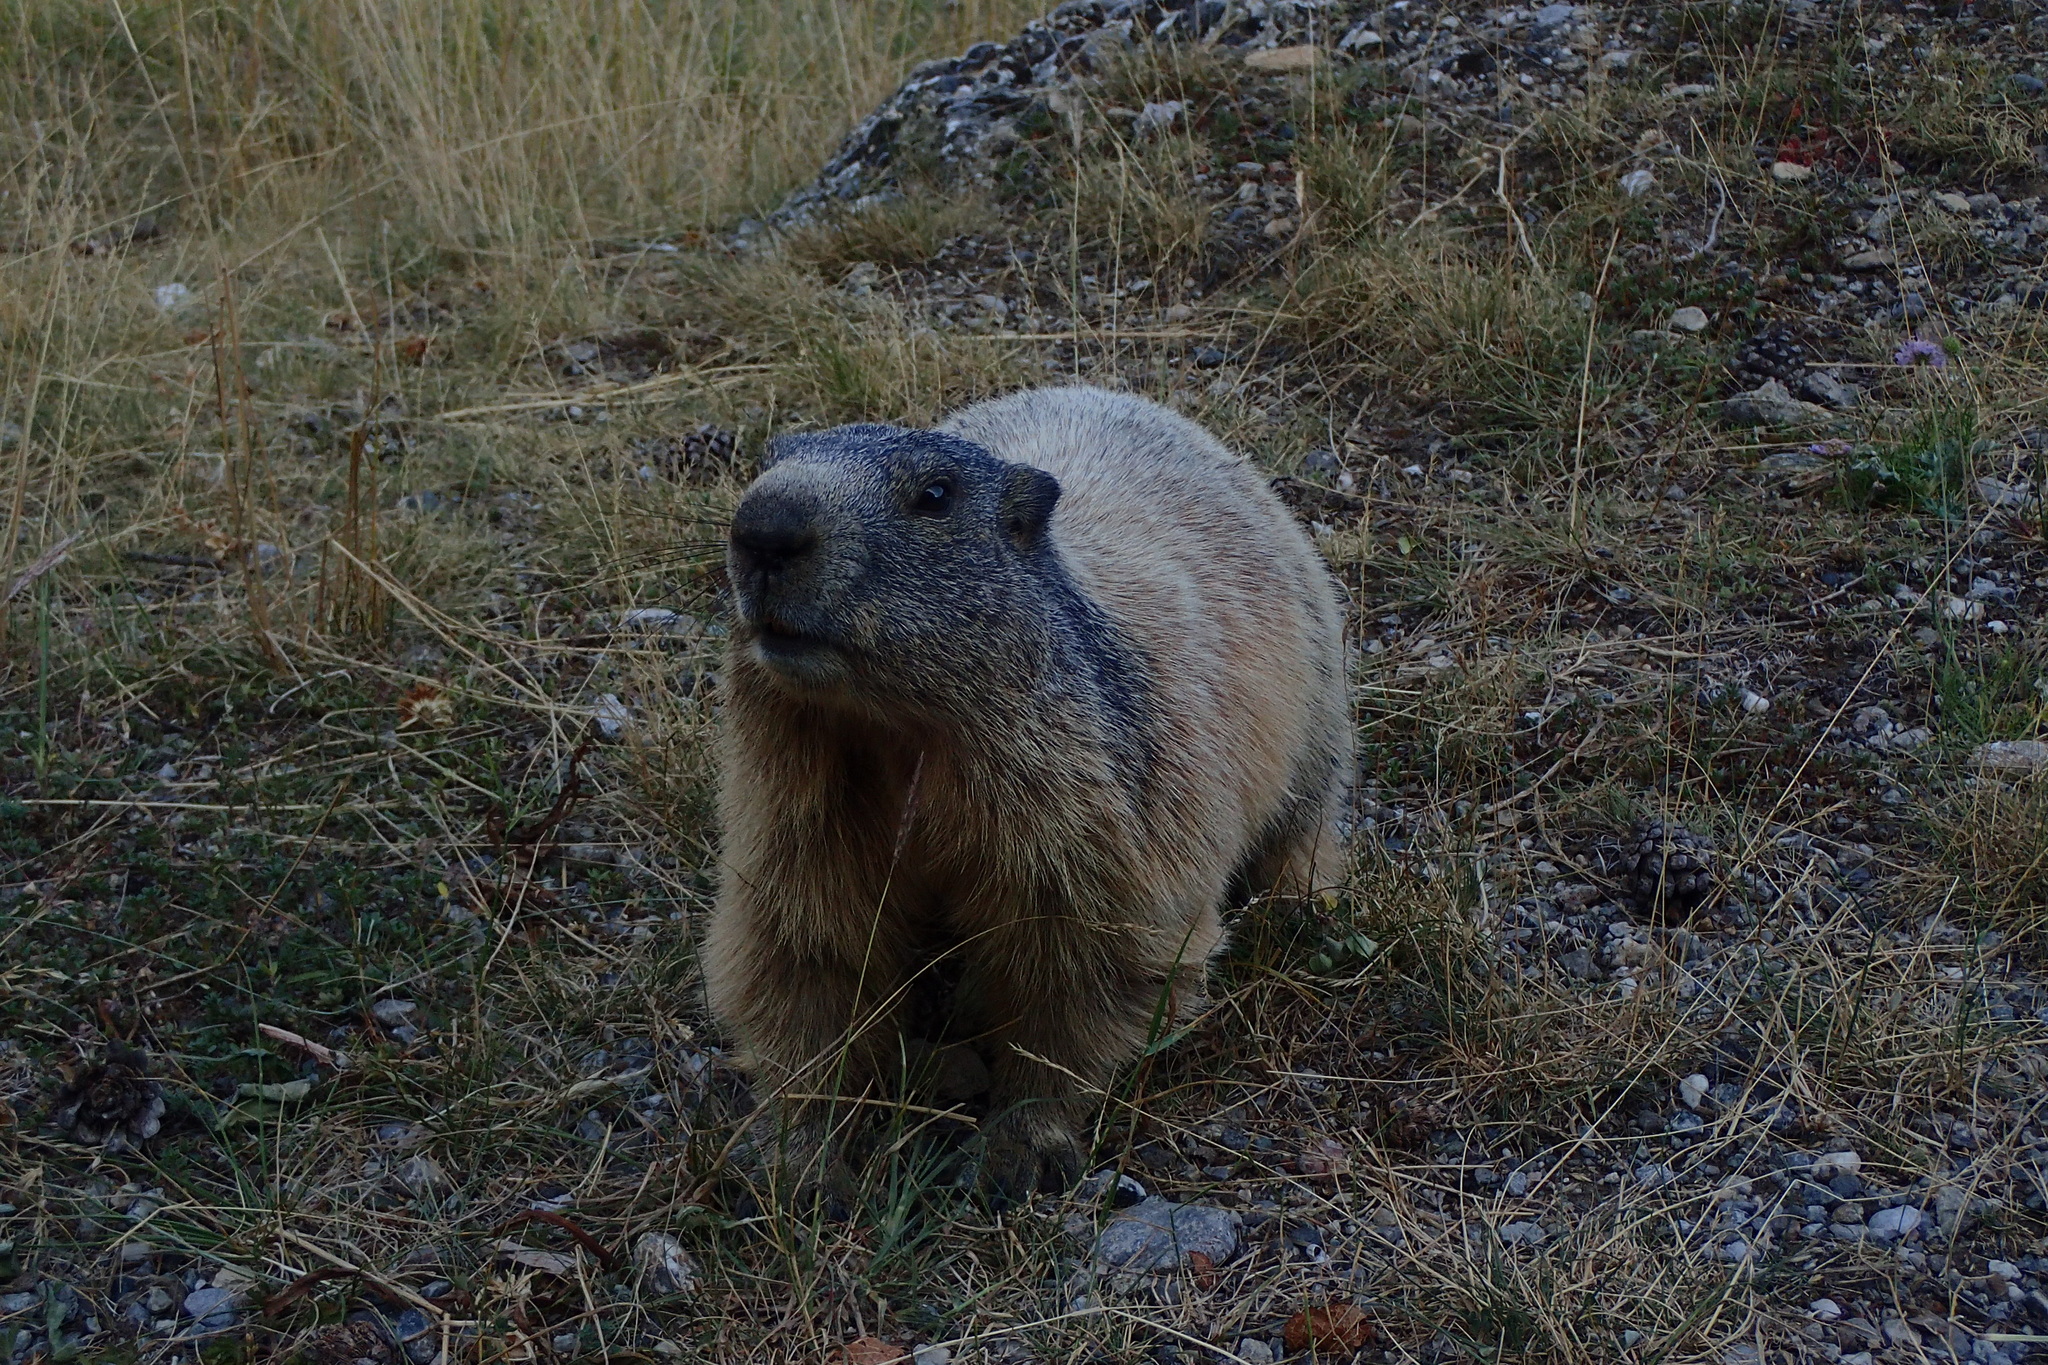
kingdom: Animalia
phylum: Chordata
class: Mammalia
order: Rodentia
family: Sciuridae
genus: Marmota
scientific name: Marmota marmota
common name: Alpine marmot
